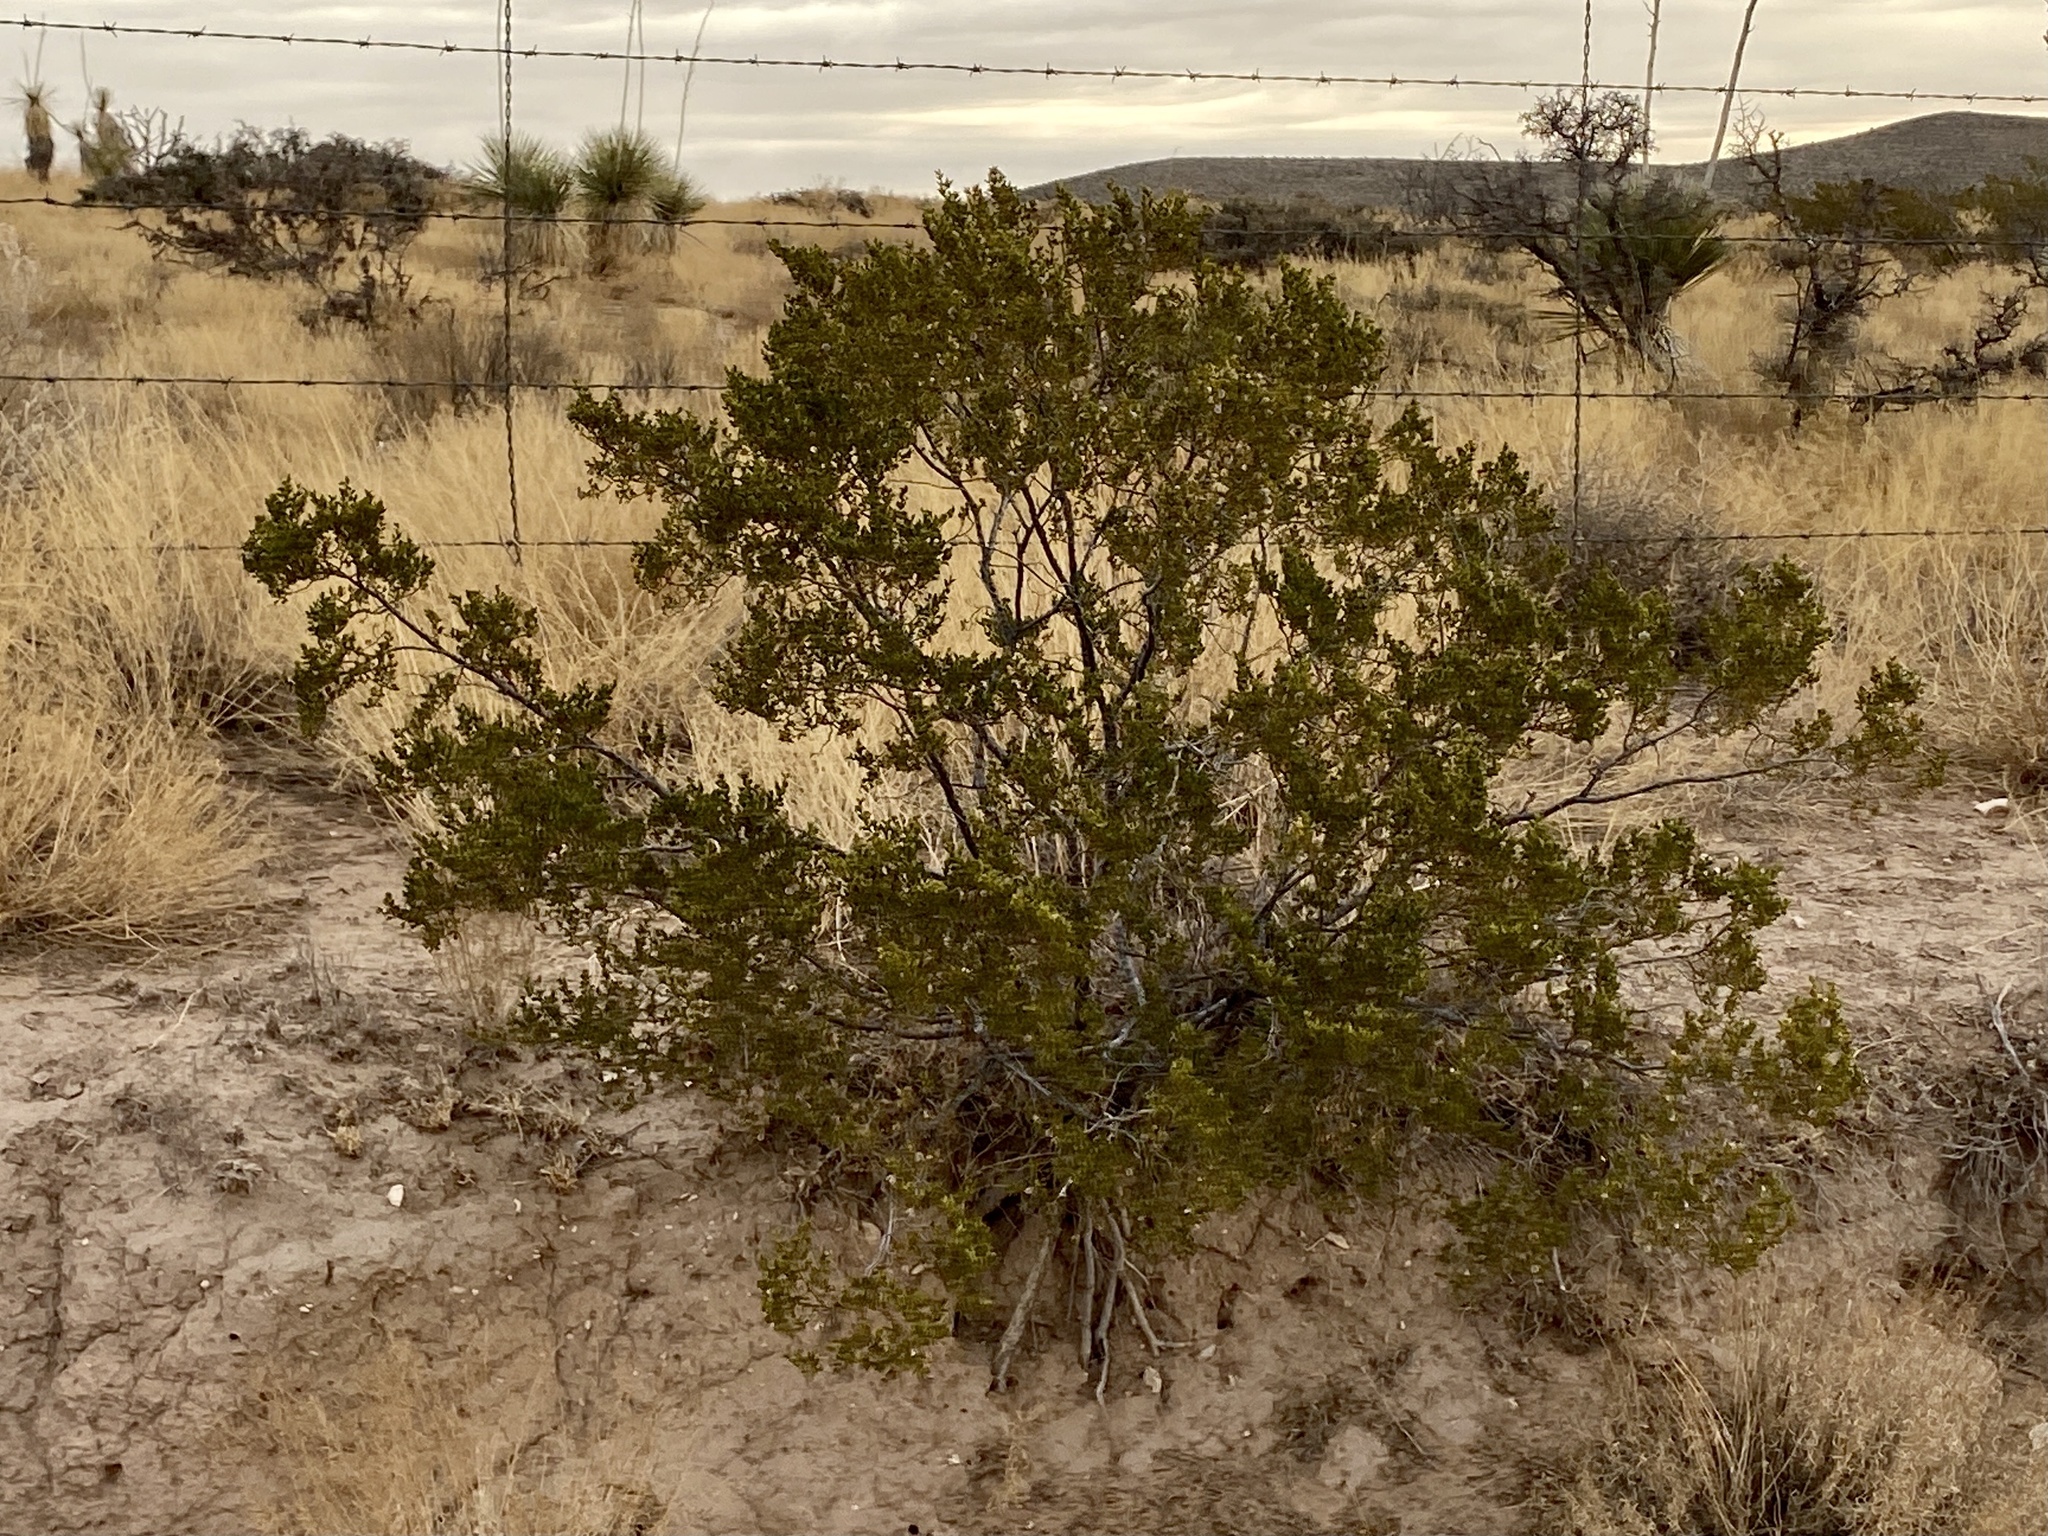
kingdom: Plantae
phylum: Tracheophyta
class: Magnoliopsida
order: Zygophyllales
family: Zygophyllaceae
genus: Larrea
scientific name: Larrea tridentata
